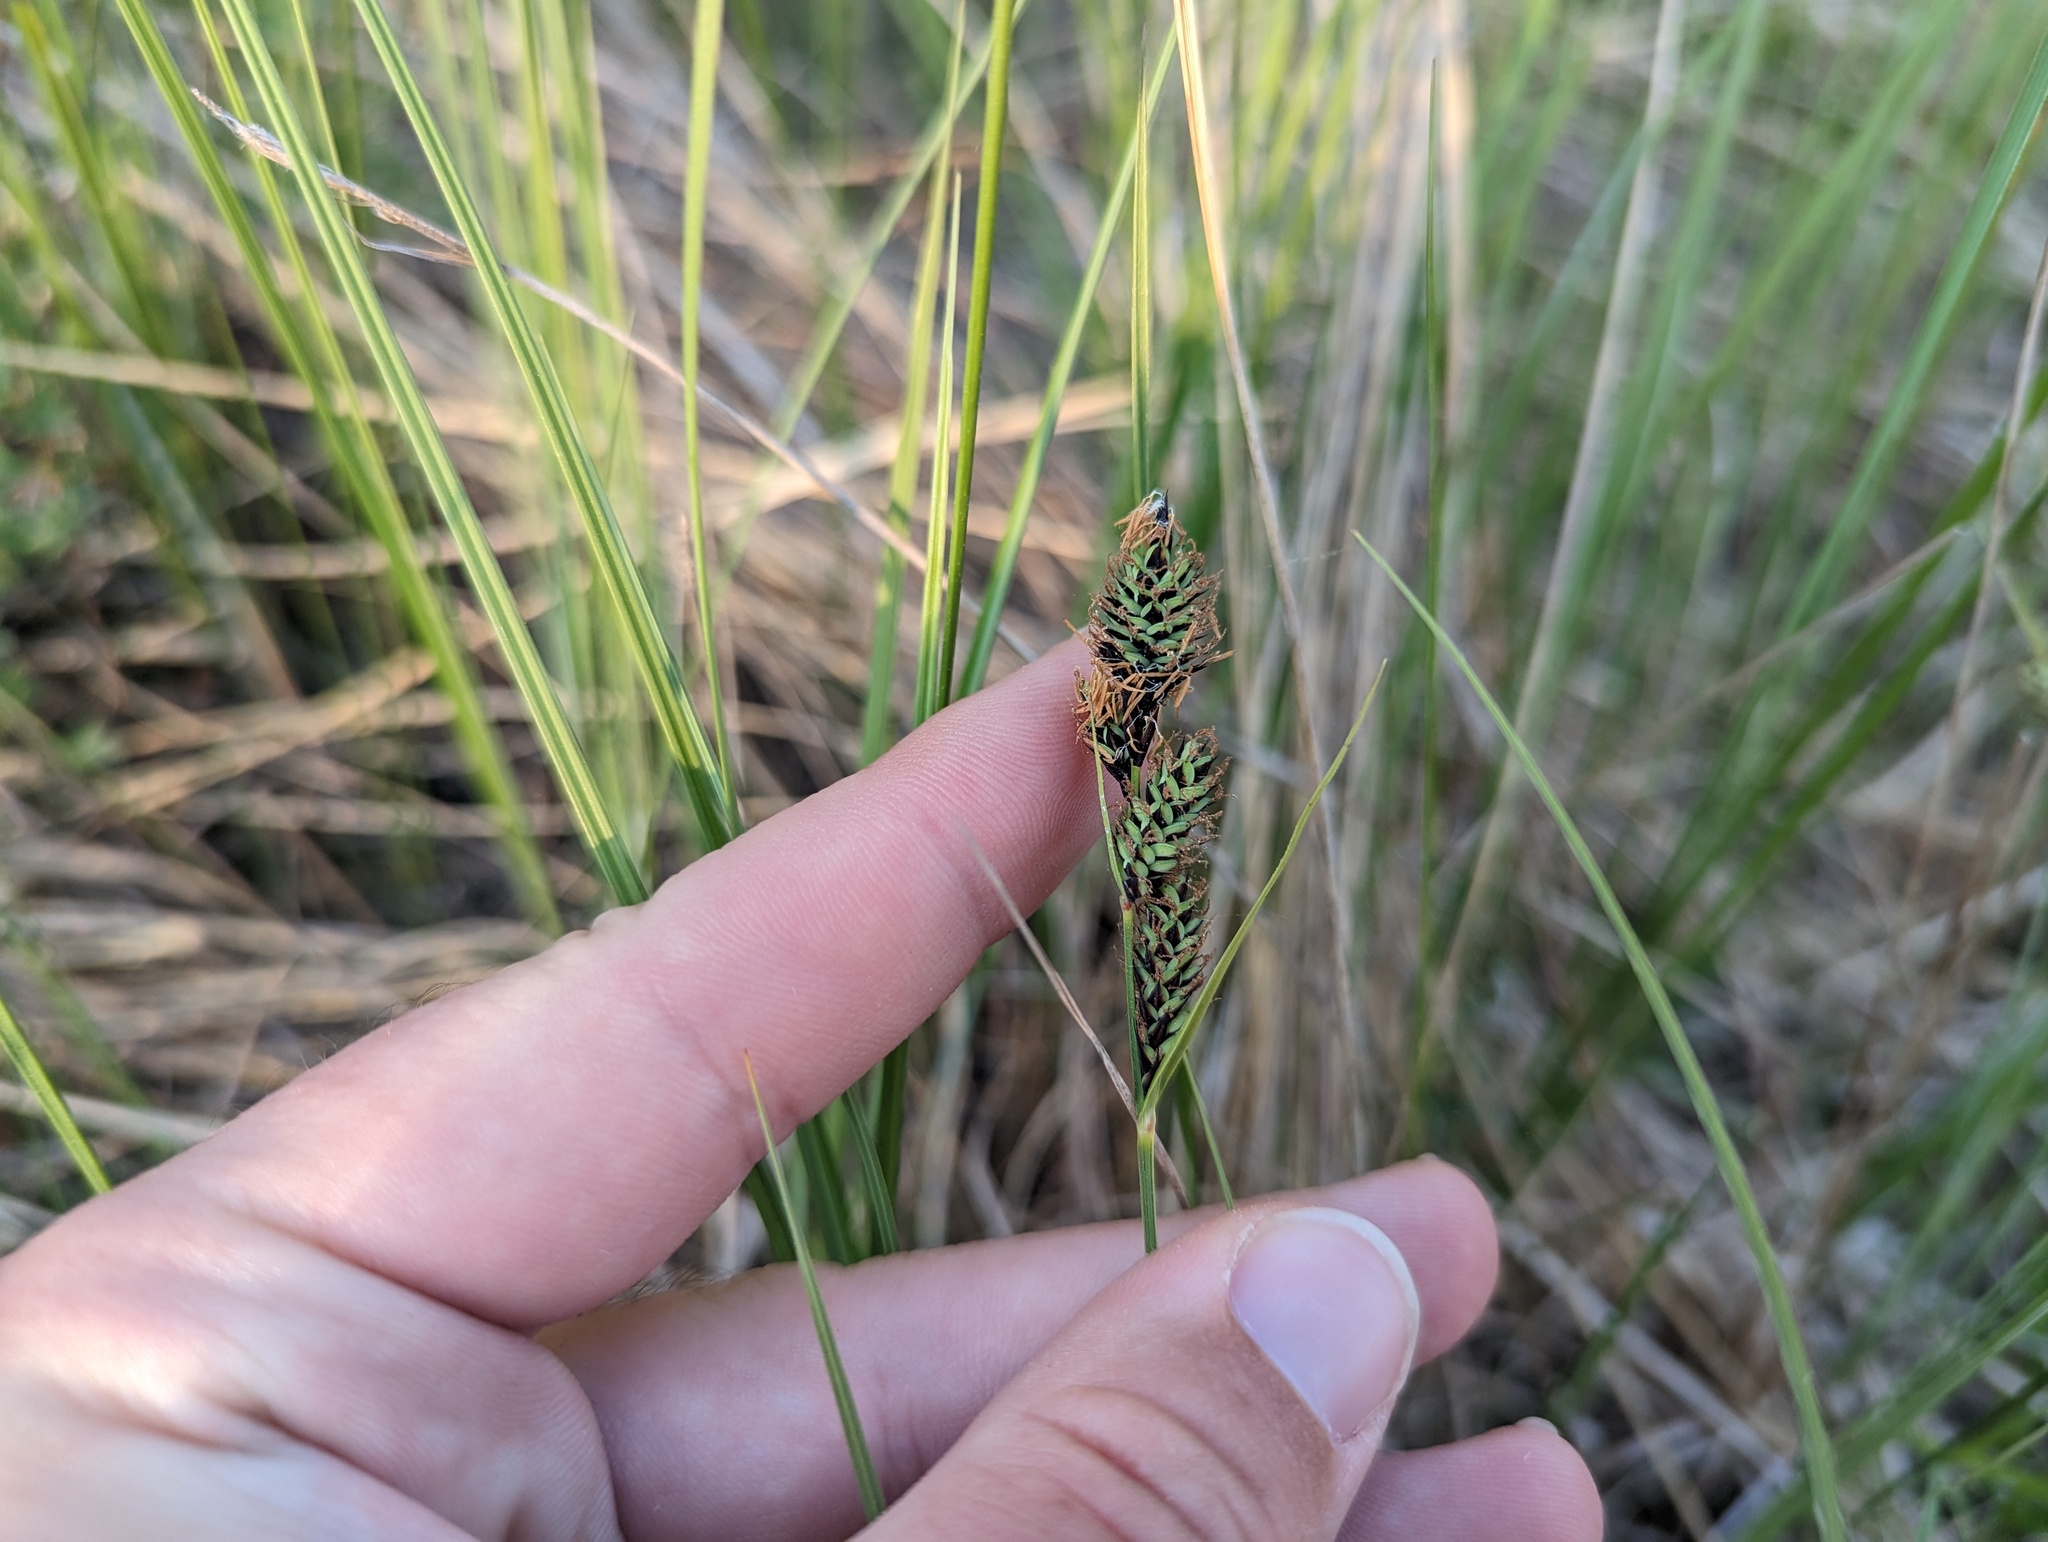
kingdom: Plantae
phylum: Tracheophyta
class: Liliopsida
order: Poales
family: Cyperaceae
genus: Carex
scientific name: Carex buxbaumii
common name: Club sedge
